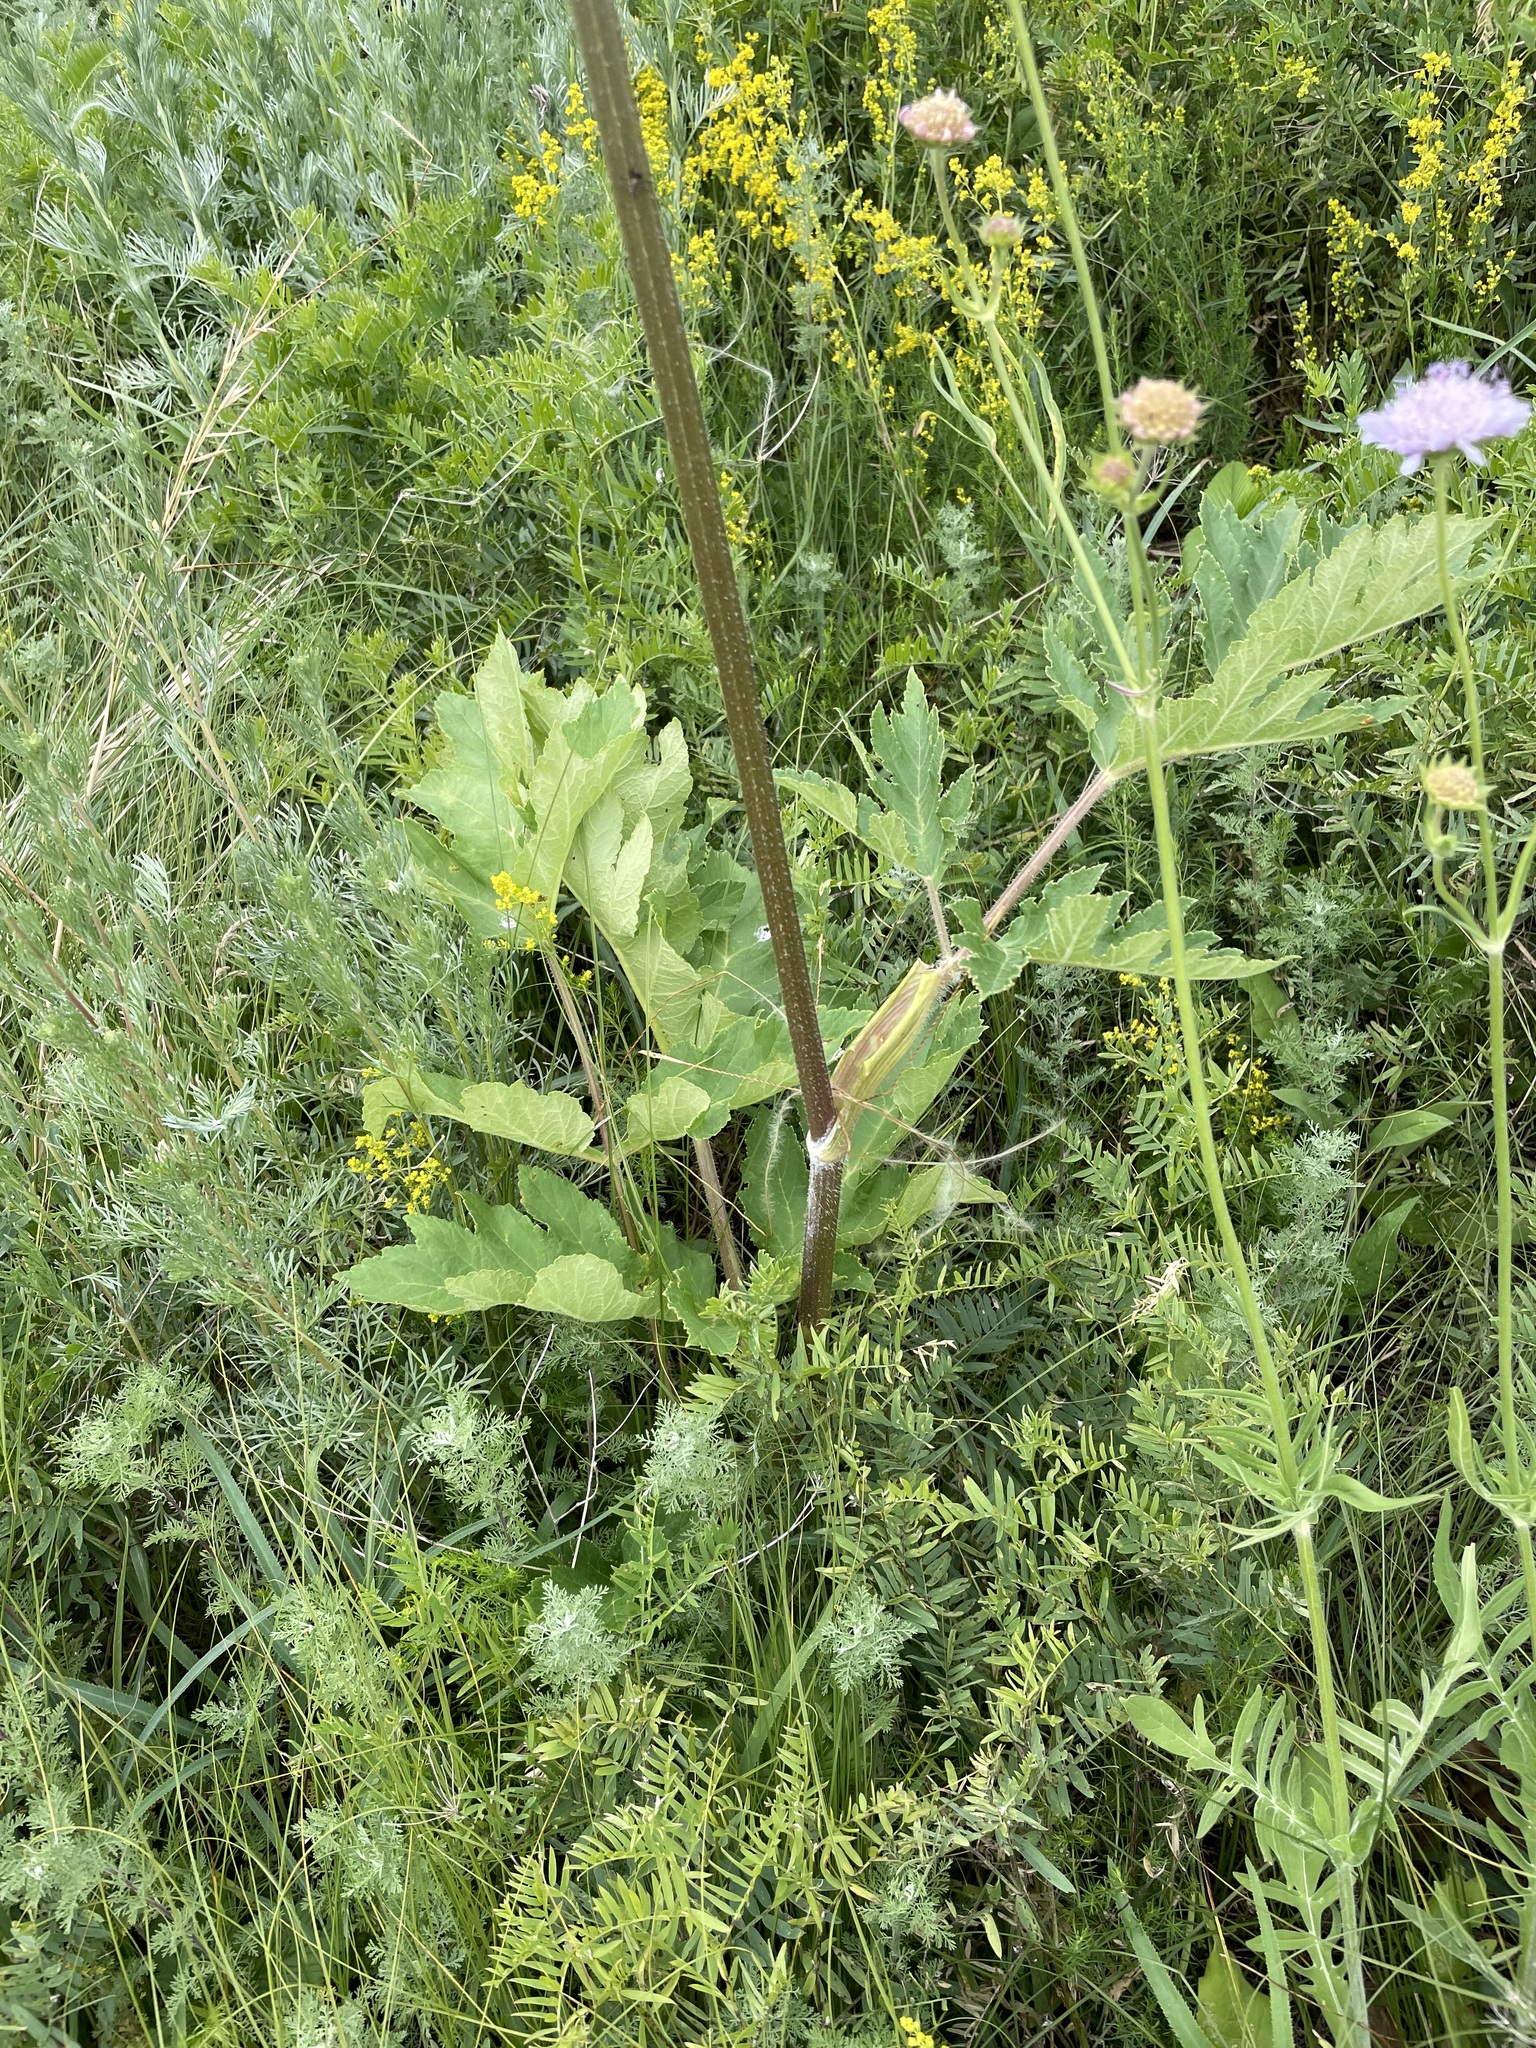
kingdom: Plantae
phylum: Tracheophyta
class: Magnoliopsida
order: Apiales
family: Apiaceae
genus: Heracleum
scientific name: Heracleum sphondylium
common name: Hogweed
